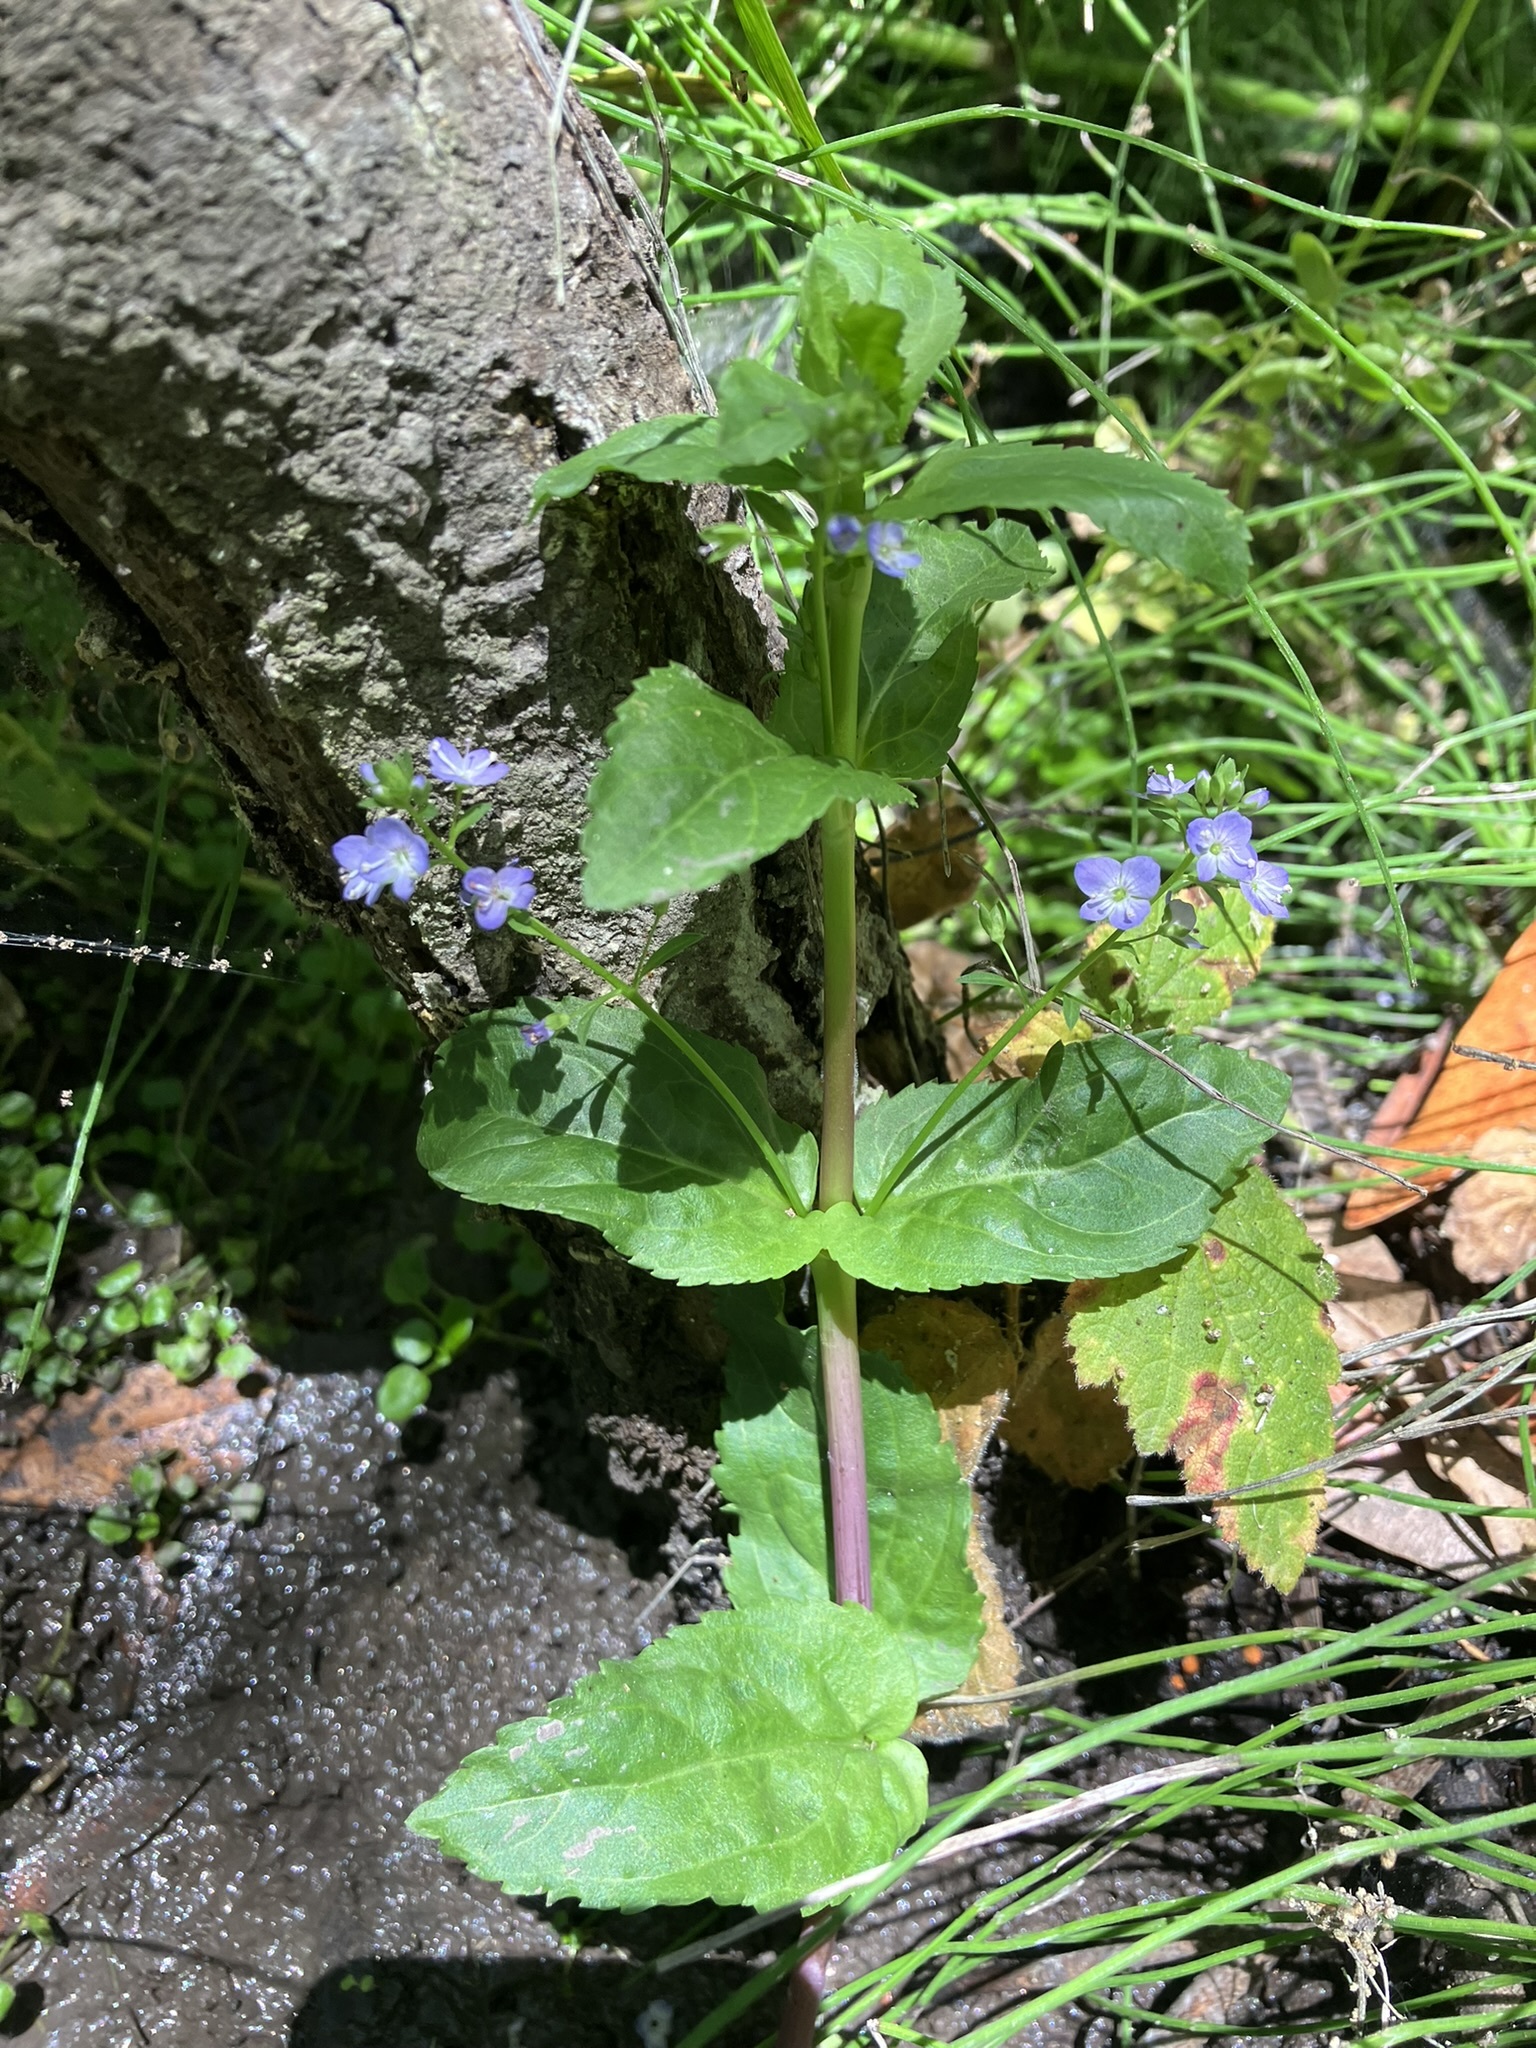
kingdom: Plantae
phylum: Tracheophyta
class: Magnoliopsida
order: Lamiales
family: Plantaginaceae
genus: Veronica
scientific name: Veronica americana
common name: American brooklime
